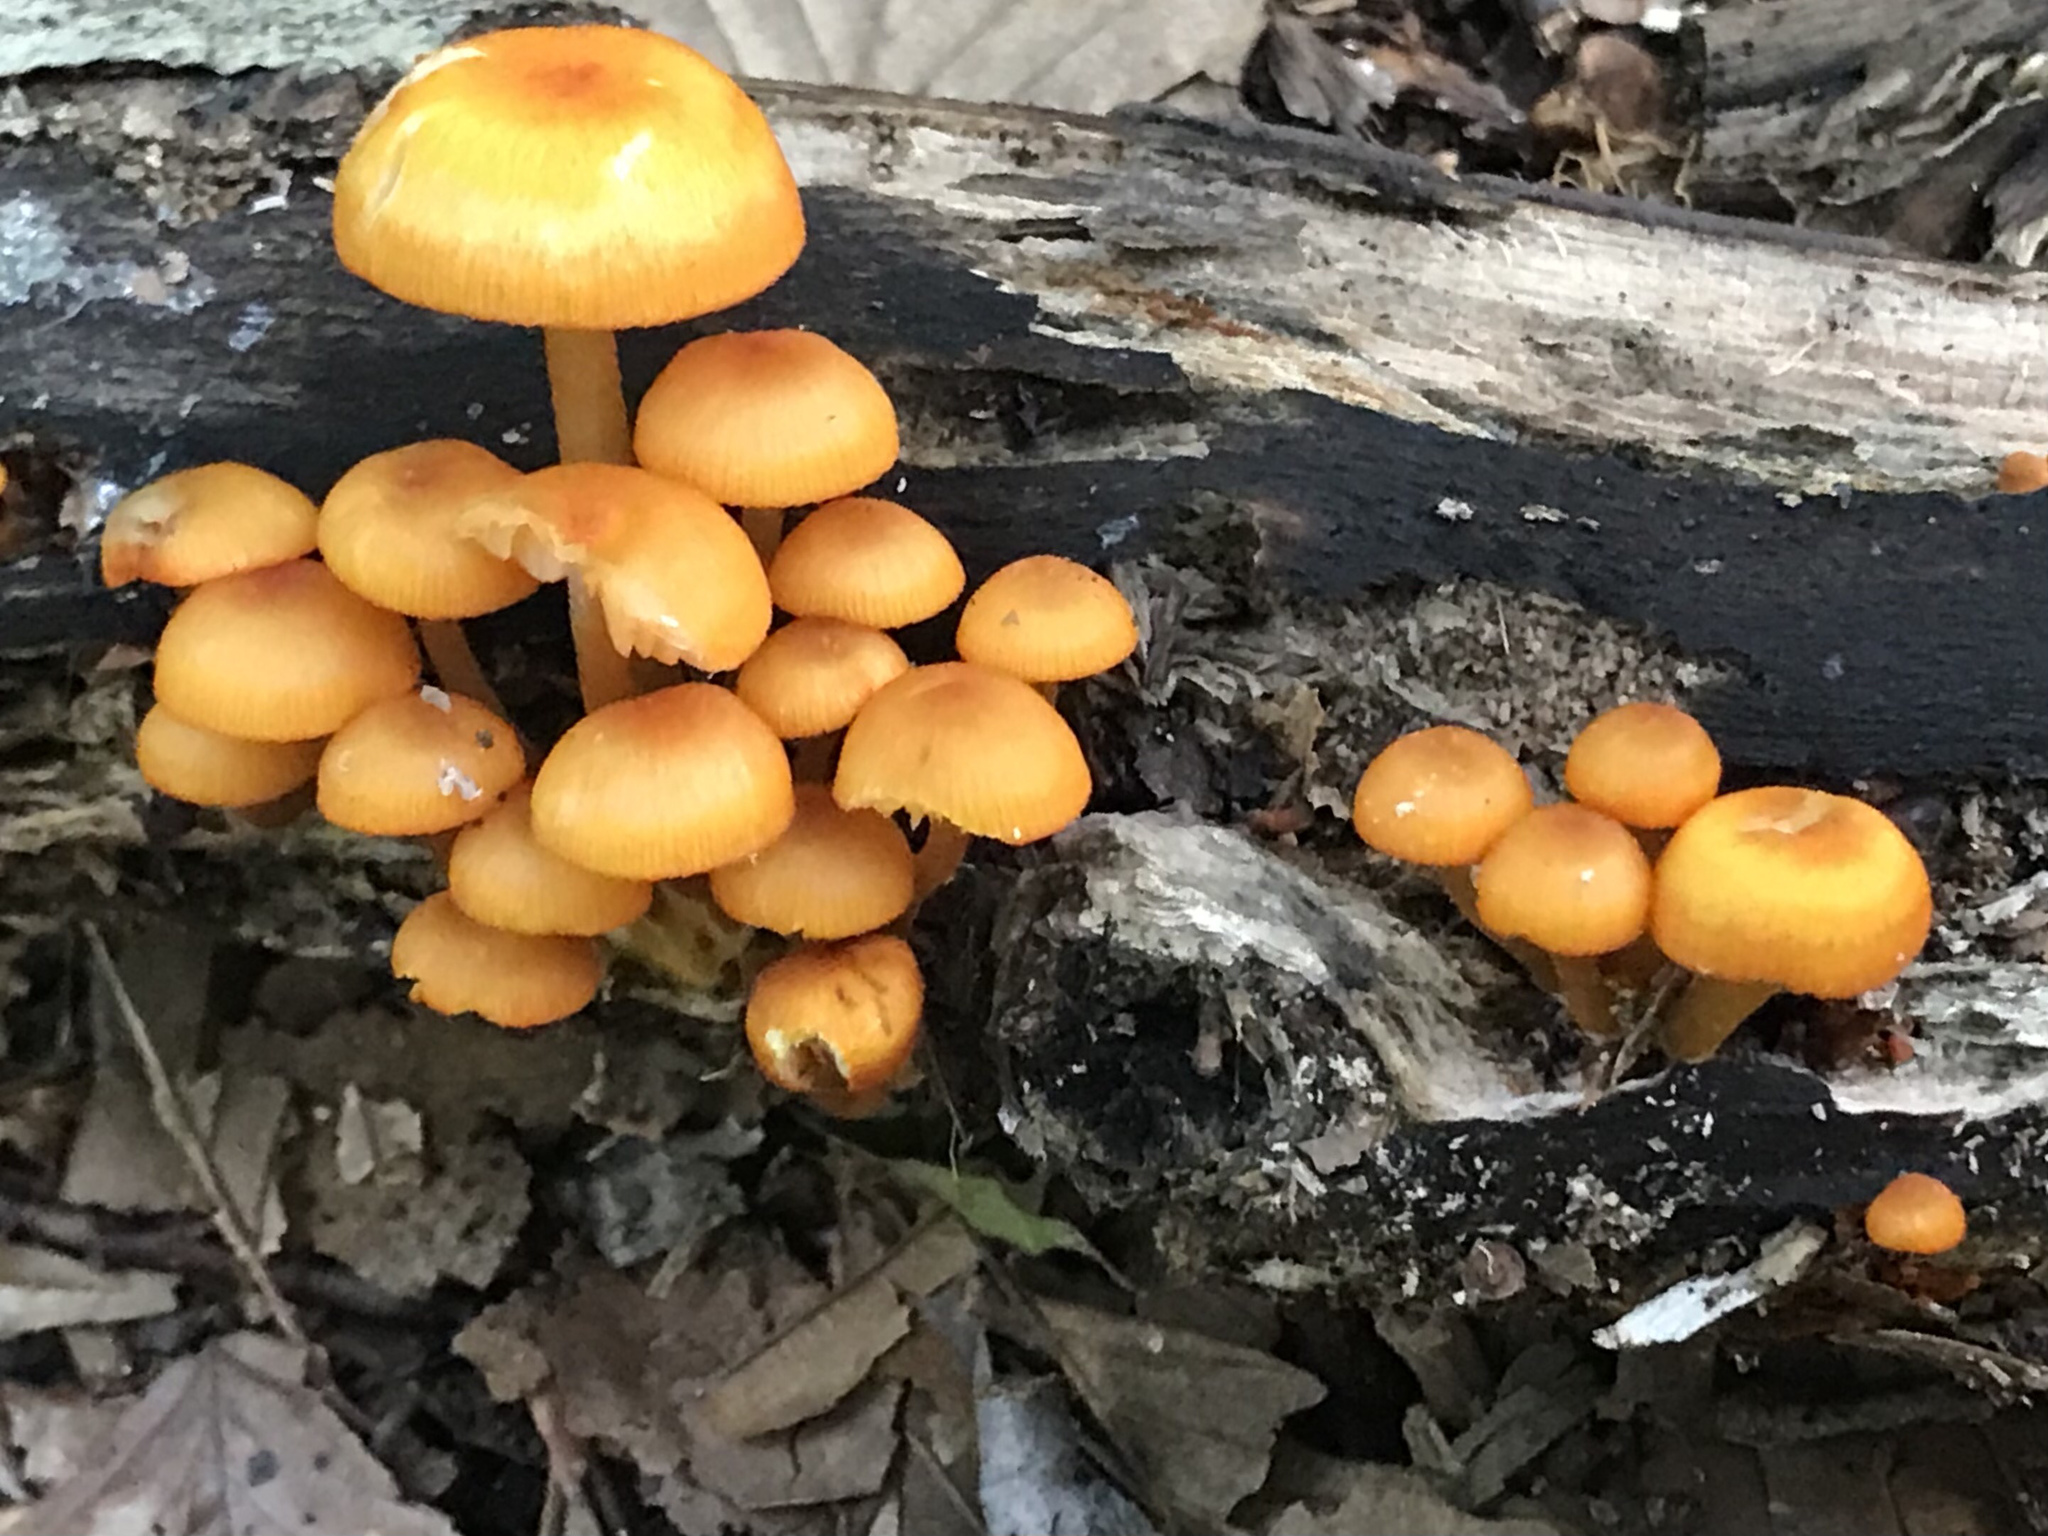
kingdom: Fungi
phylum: Basidiomycota
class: Agaricomycetes
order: Agaricales
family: Mycenaceae
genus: Mycena
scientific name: Mycena leaiana
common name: Orange mycena
